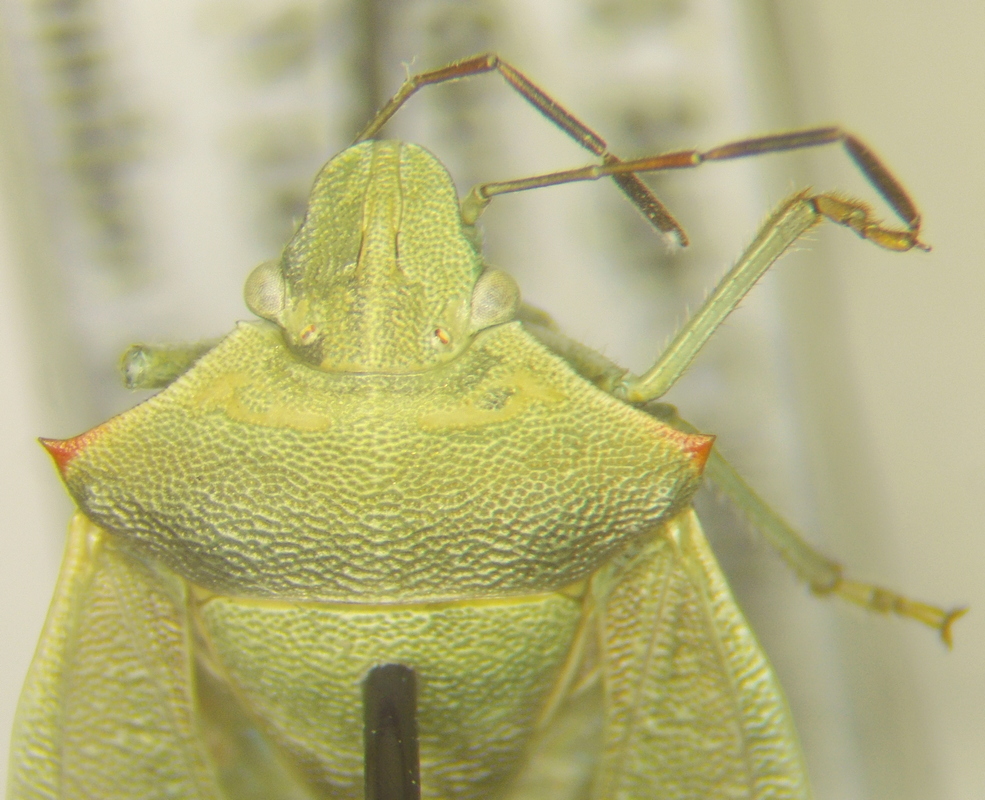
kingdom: Animalia
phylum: Arthropoda
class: Insecta
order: Hemiptera
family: Pentatomidae
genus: Thyanta
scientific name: Thyanta custator
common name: Stink bug
